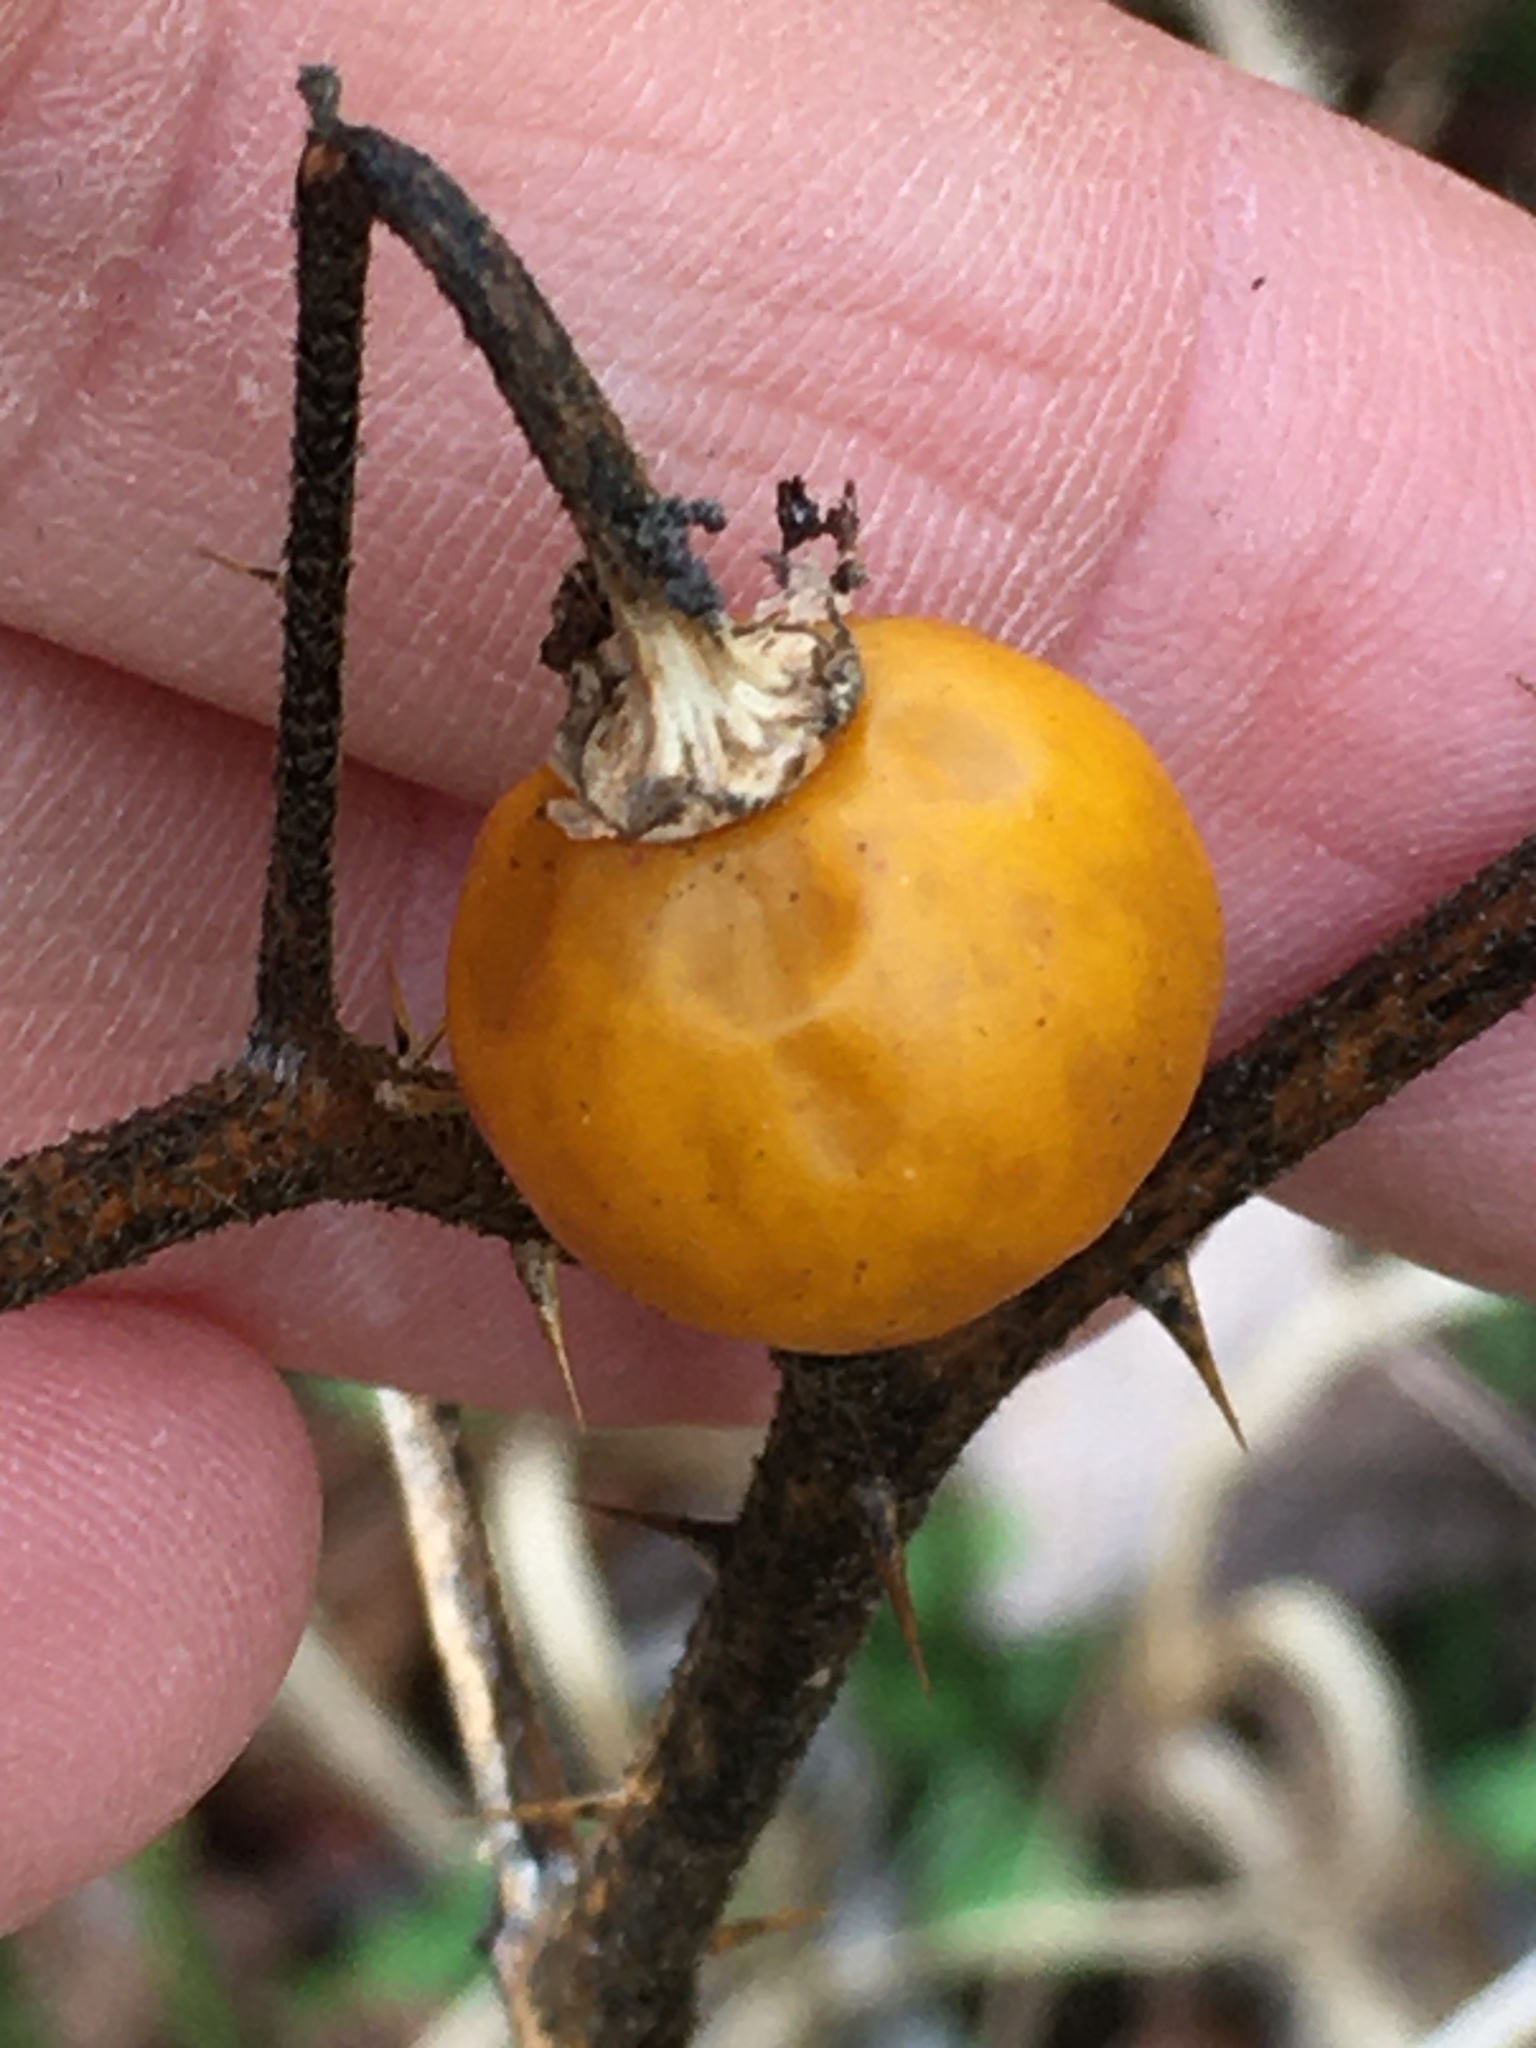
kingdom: Plantae
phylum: Tracheophyta
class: Magnoliopsida
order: Solanales
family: Solanaceae
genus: Solanum
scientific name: Solanum carolinense
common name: Horse-nettle
